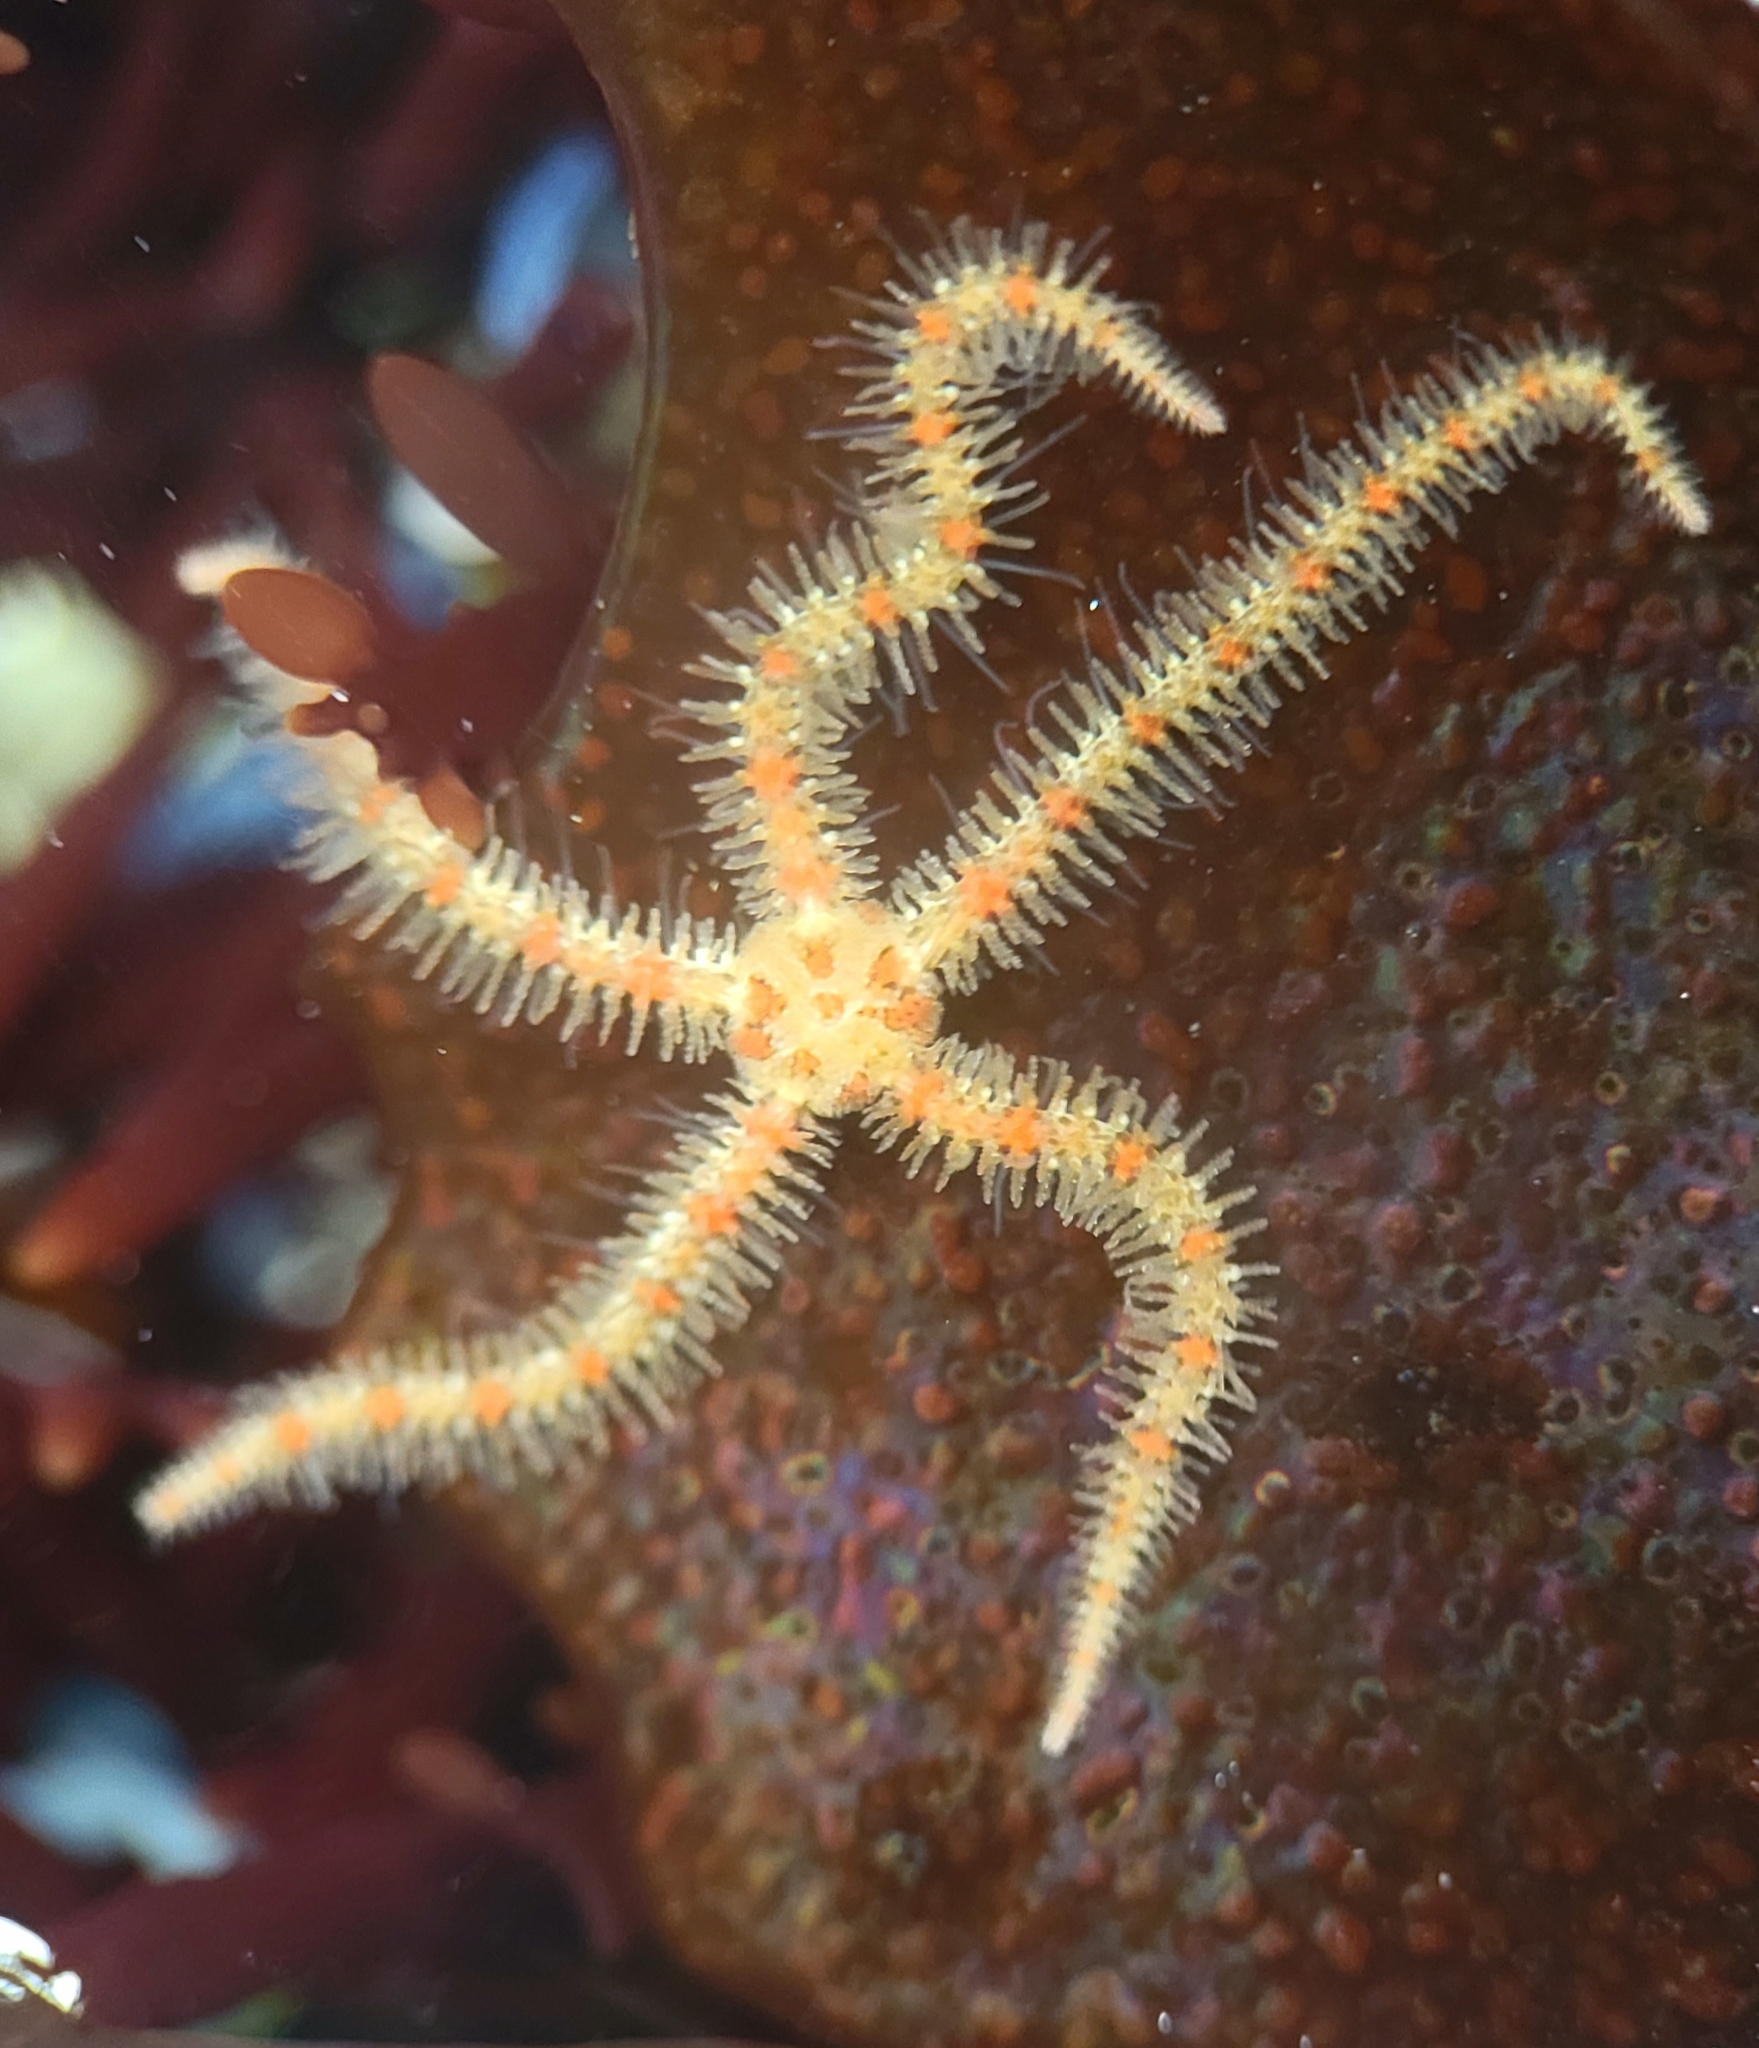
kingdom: Animalia
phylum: Echinodermata
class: Ophiuroidea
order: Amphilepidida
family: Ophiotrichidae
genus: Ophiothrix
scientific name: Ophiothrix spiculata
